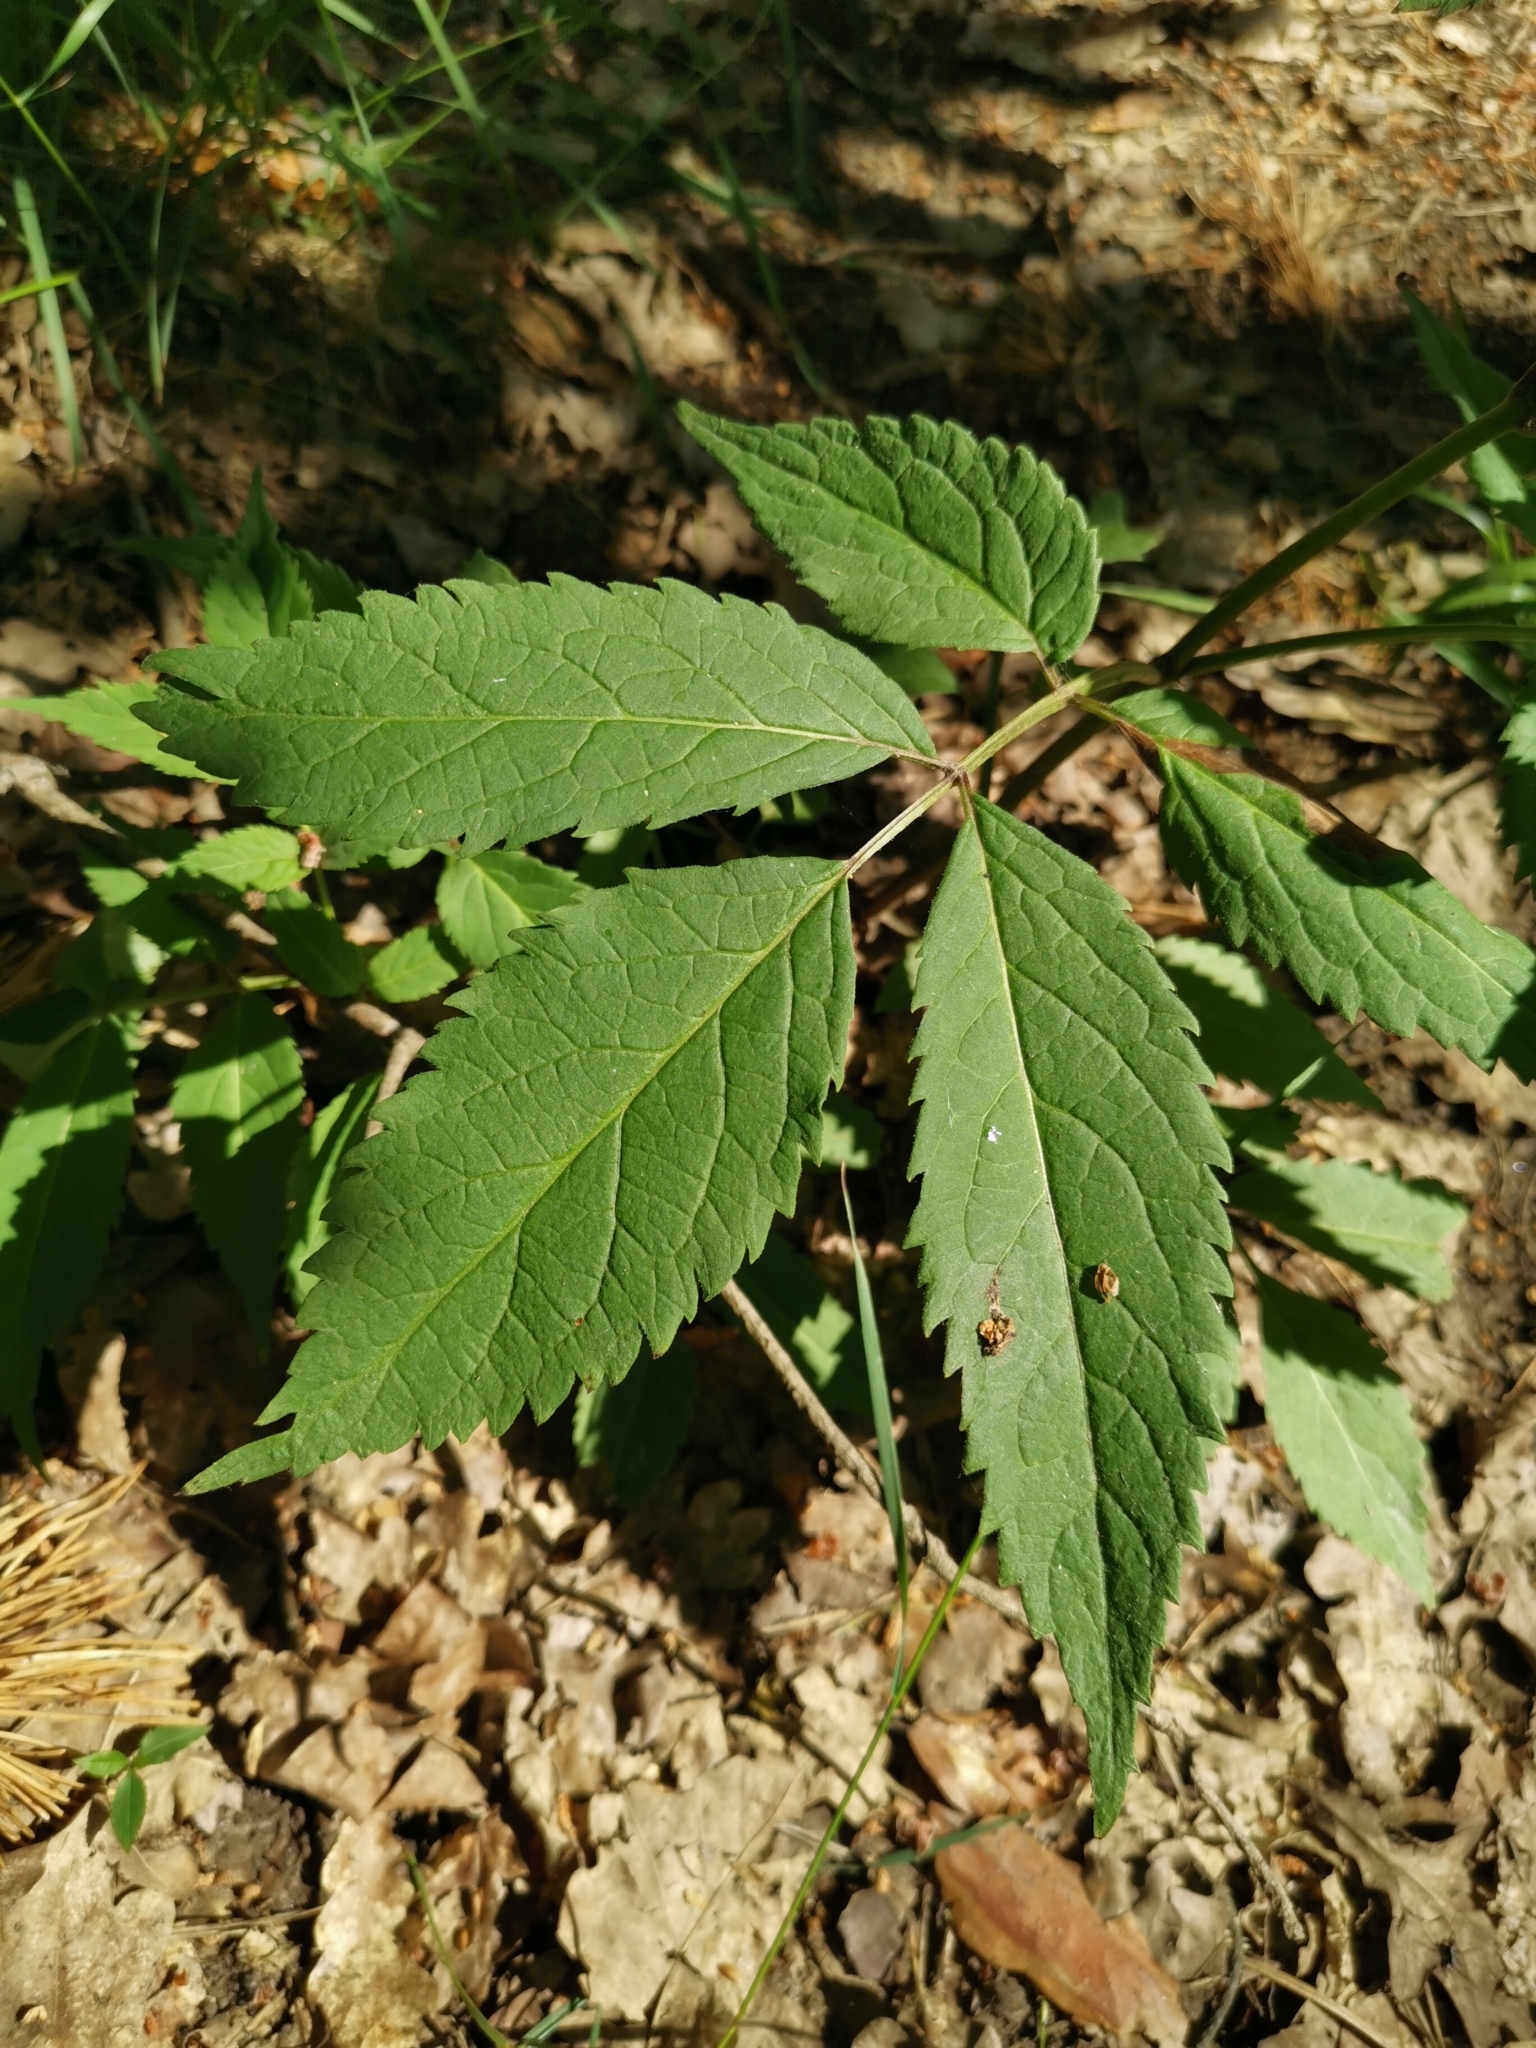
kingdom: Plantae
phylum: Tracheophyta
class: Magnoliopsida
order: Dipsacales
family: Viburnaceae
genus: Sambucus
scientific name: Sambucus racemosa
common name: Red-berried elder
